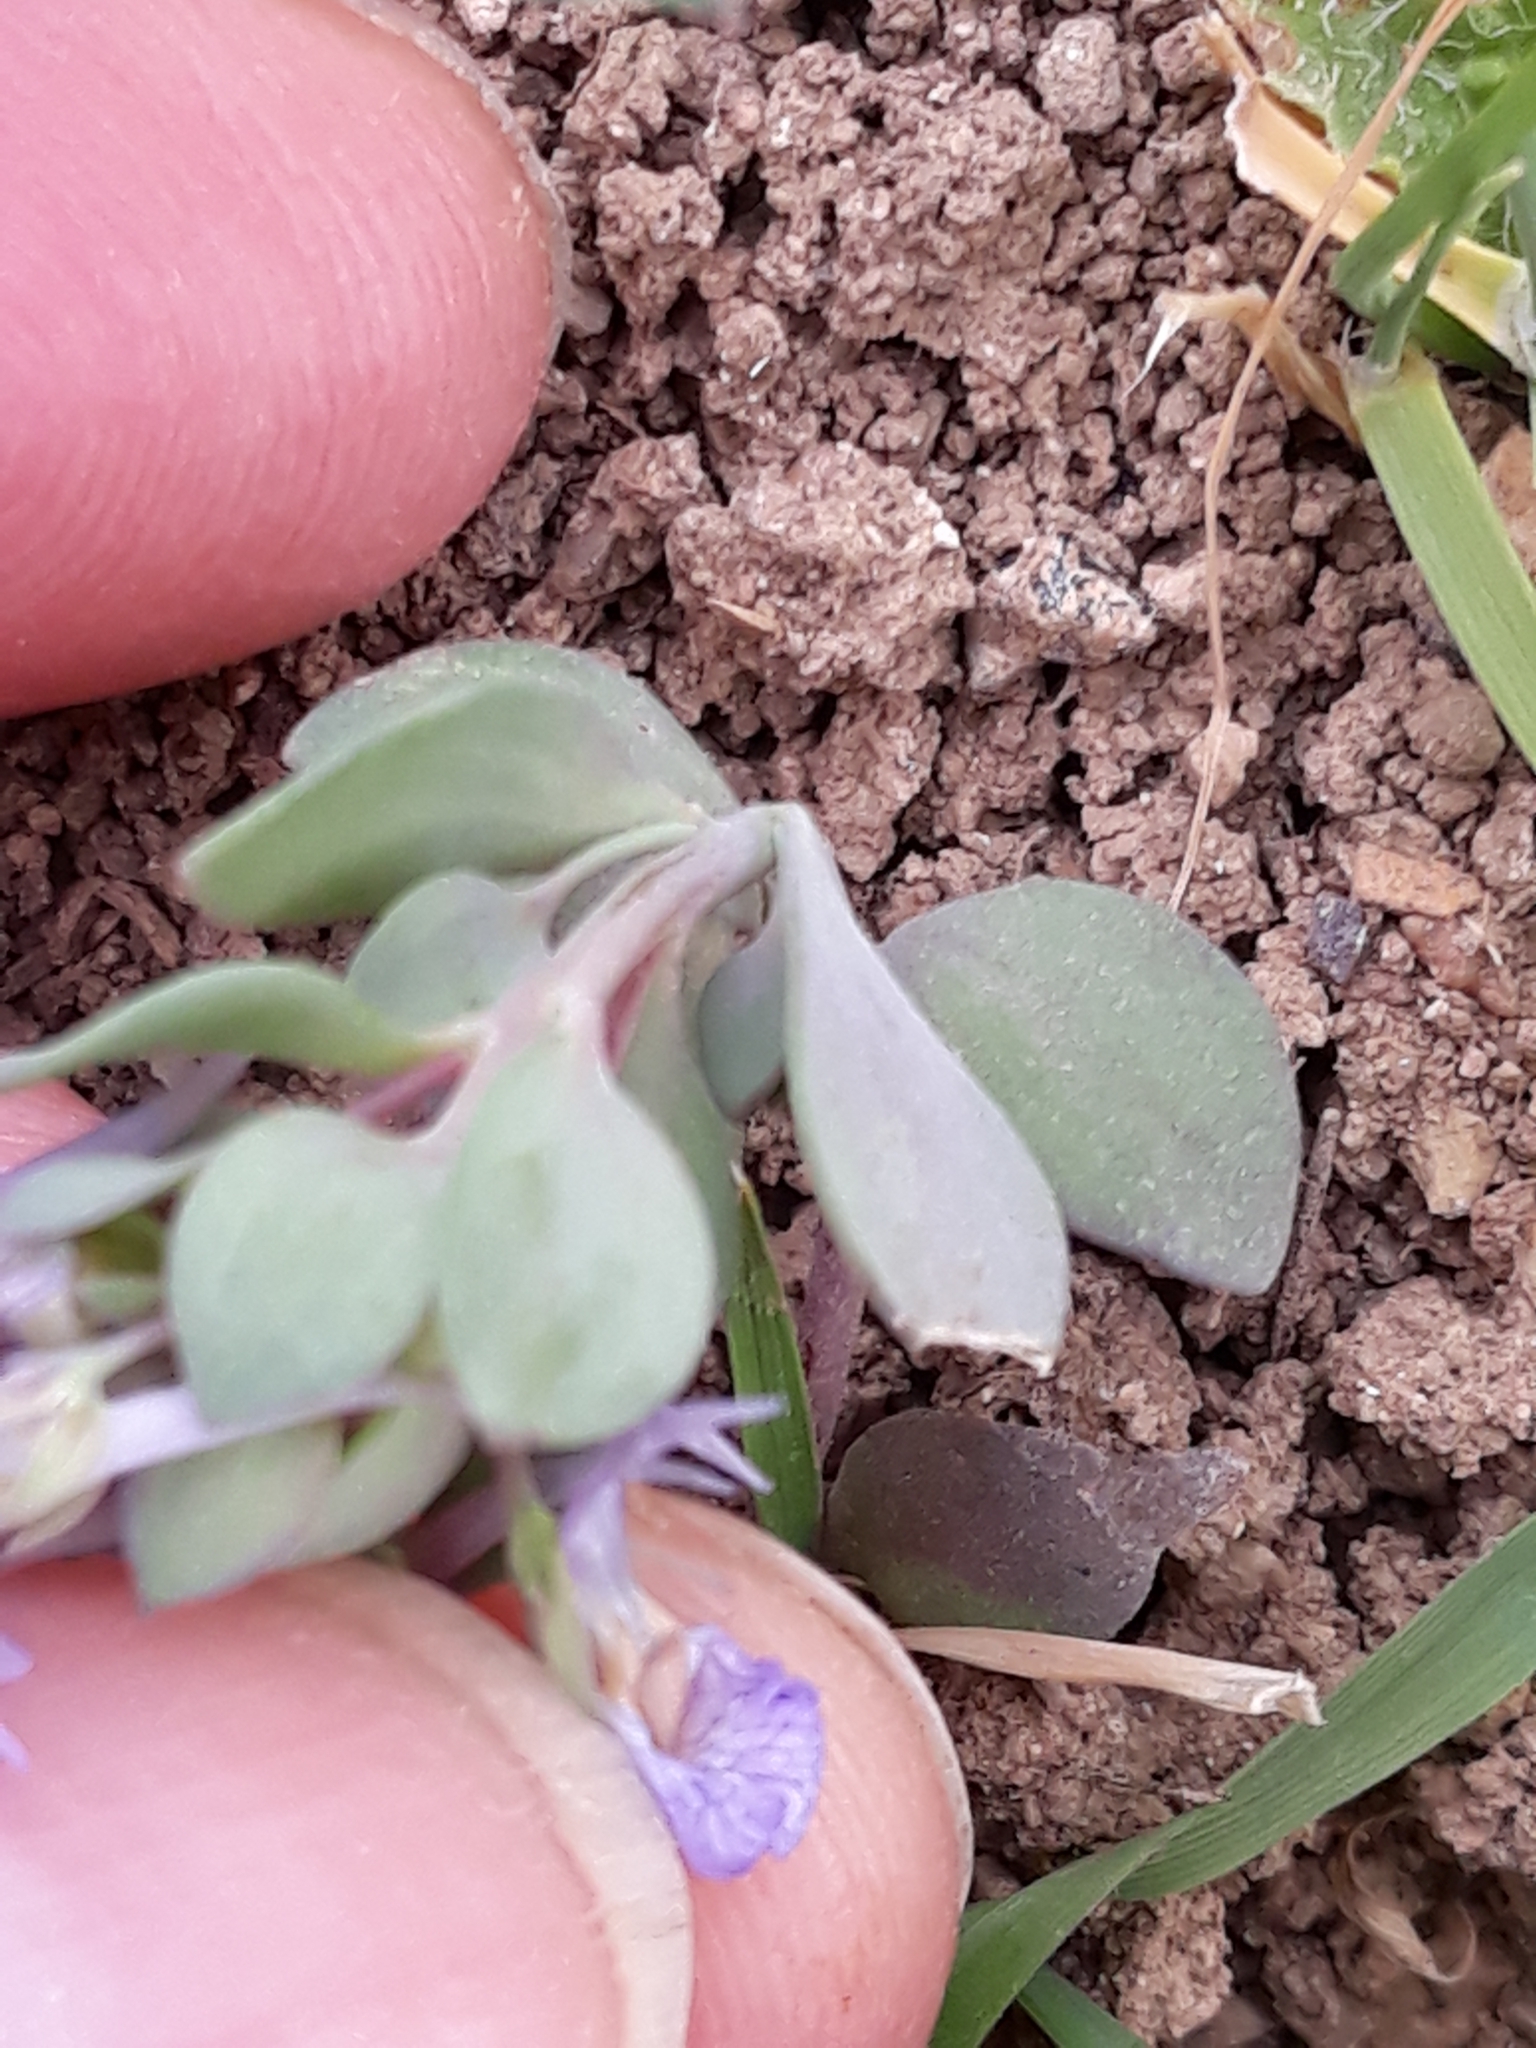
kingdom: Plantae
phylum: Tracheophyta
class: Magnoliopsida
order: Lamiales
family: Plantaginaceae
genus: Linaria
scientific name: Linaria reflexa
